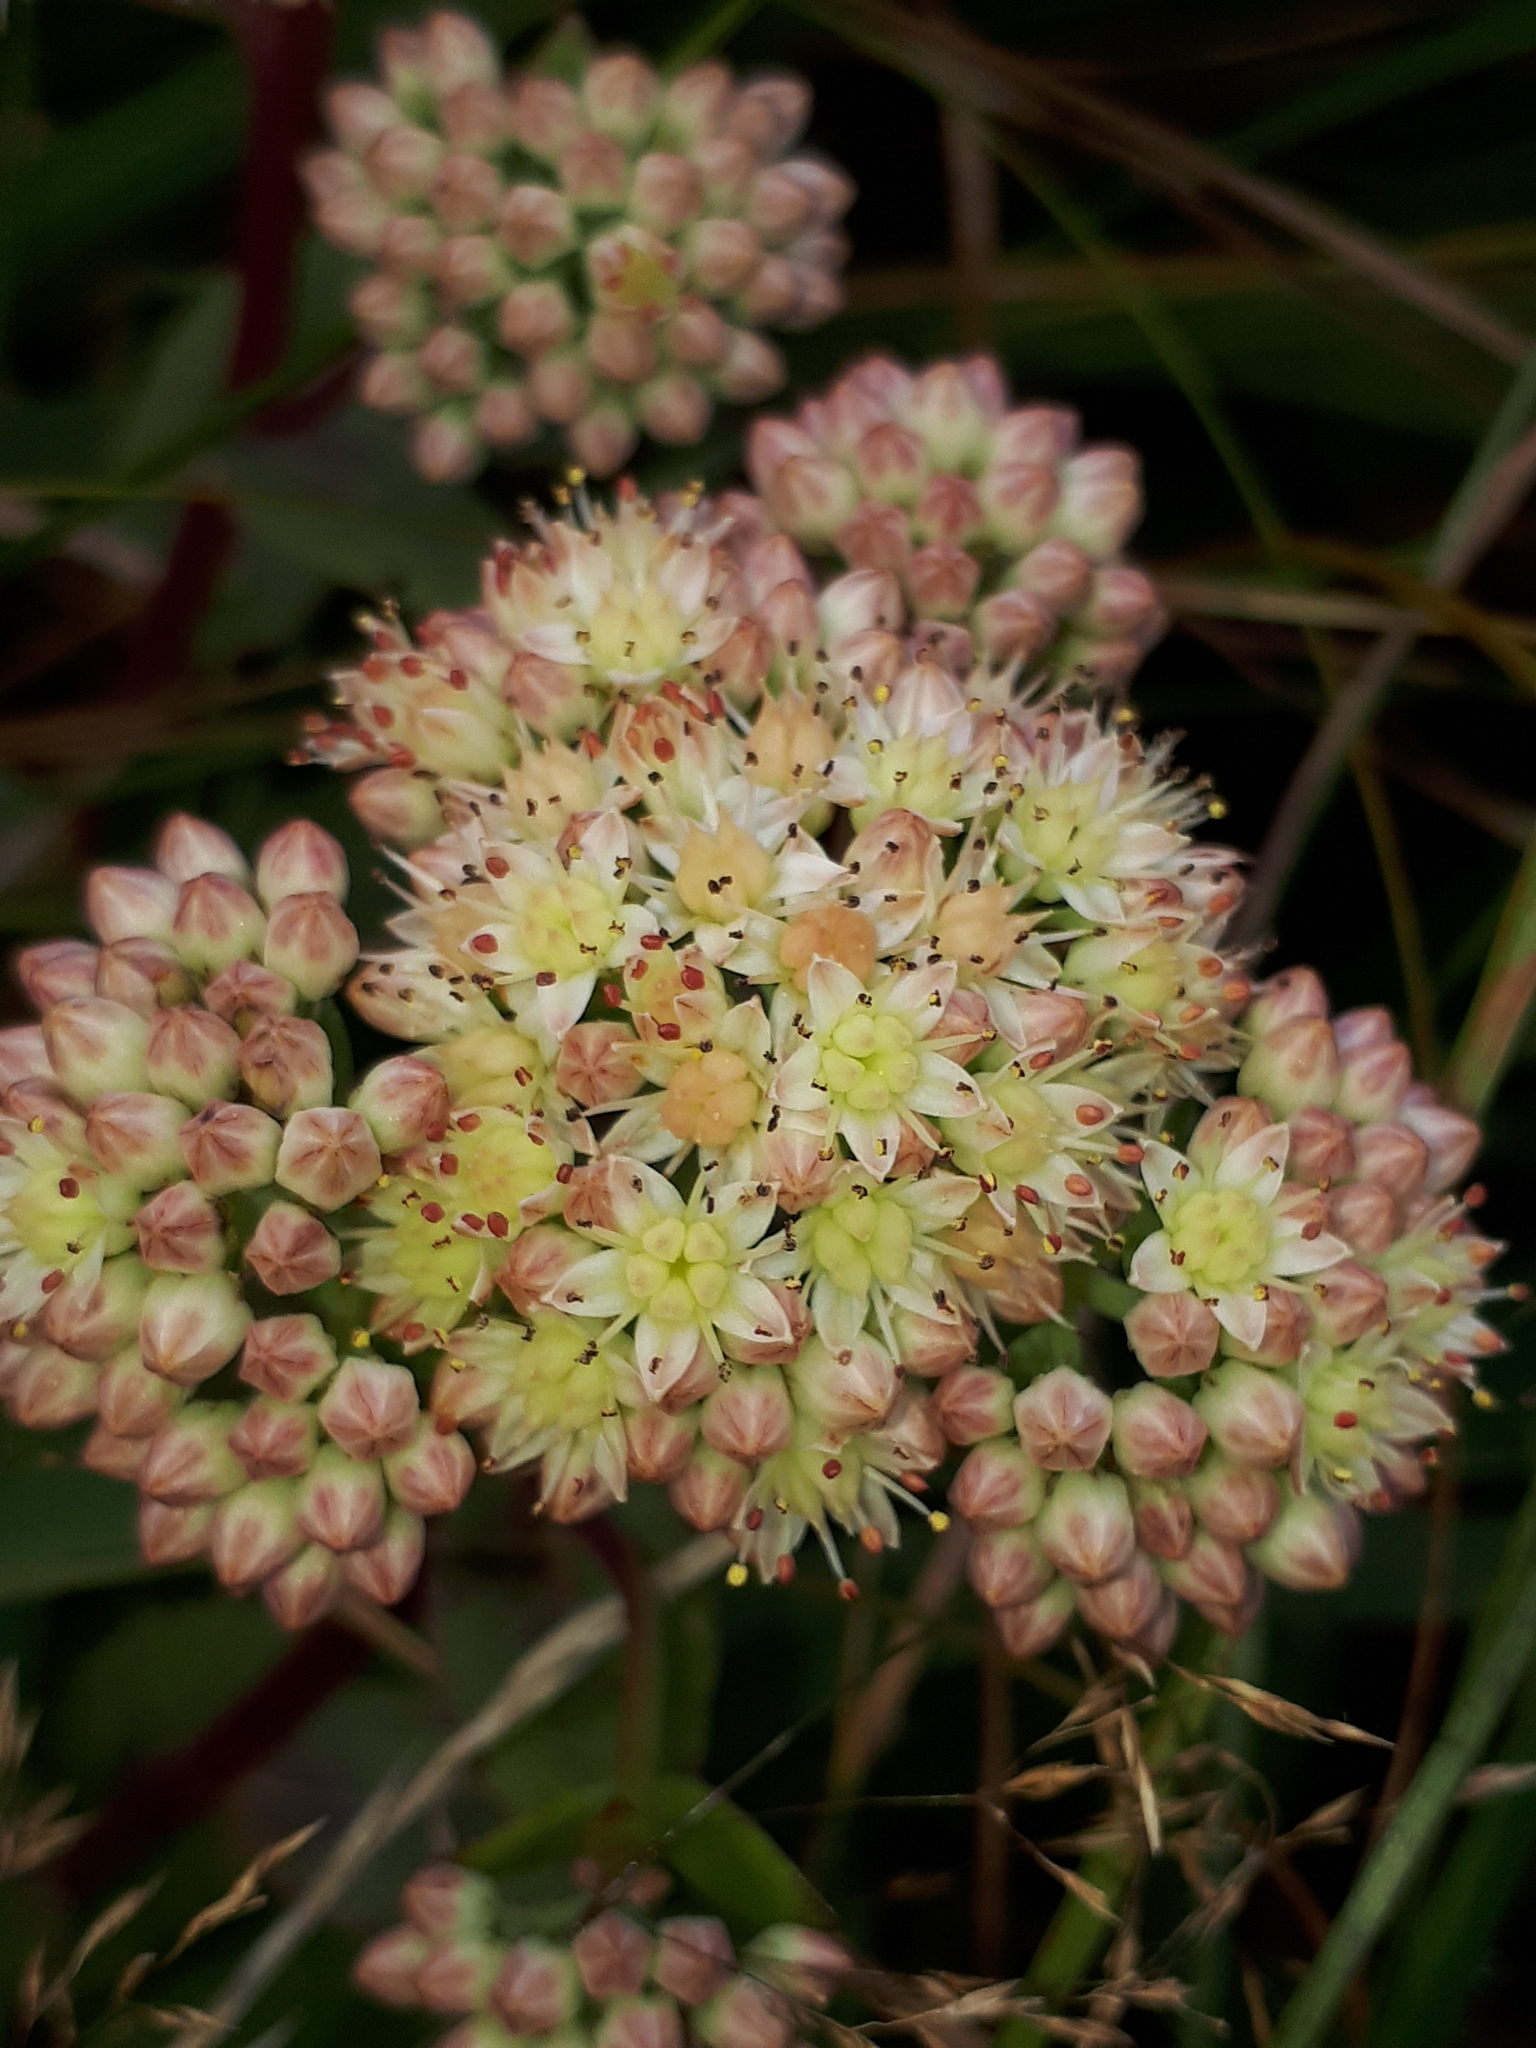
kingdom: Plantae
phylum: Tracheophyta
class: Magnoliopsida
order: Saxifragales
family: Crassulaceae
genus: Hylotelephium
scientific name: Hylotelephium maximum
